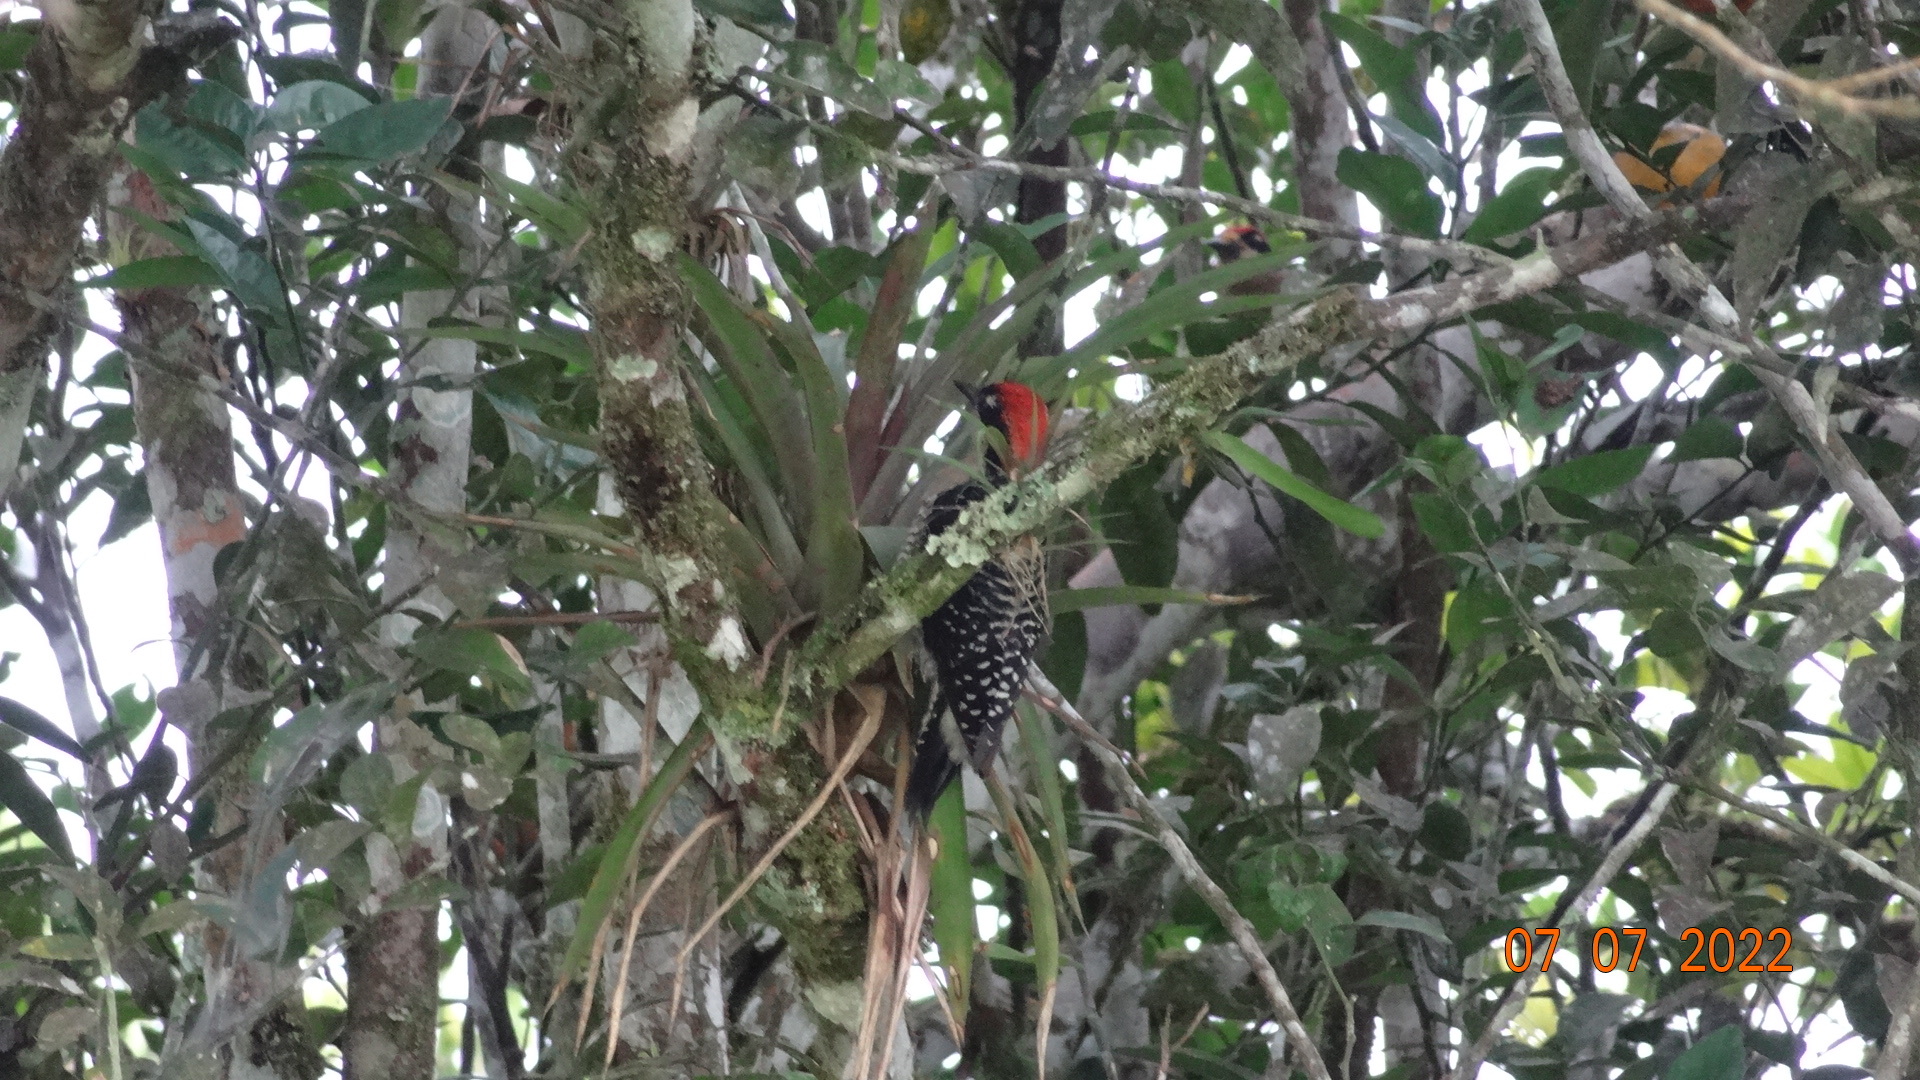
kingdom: Animalia
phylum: Chordata
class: Aves
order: Piciformes
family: Picidae
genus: Melanerpes
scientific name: Melanerpes pucherani
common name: Black-cheeked woodpecker
